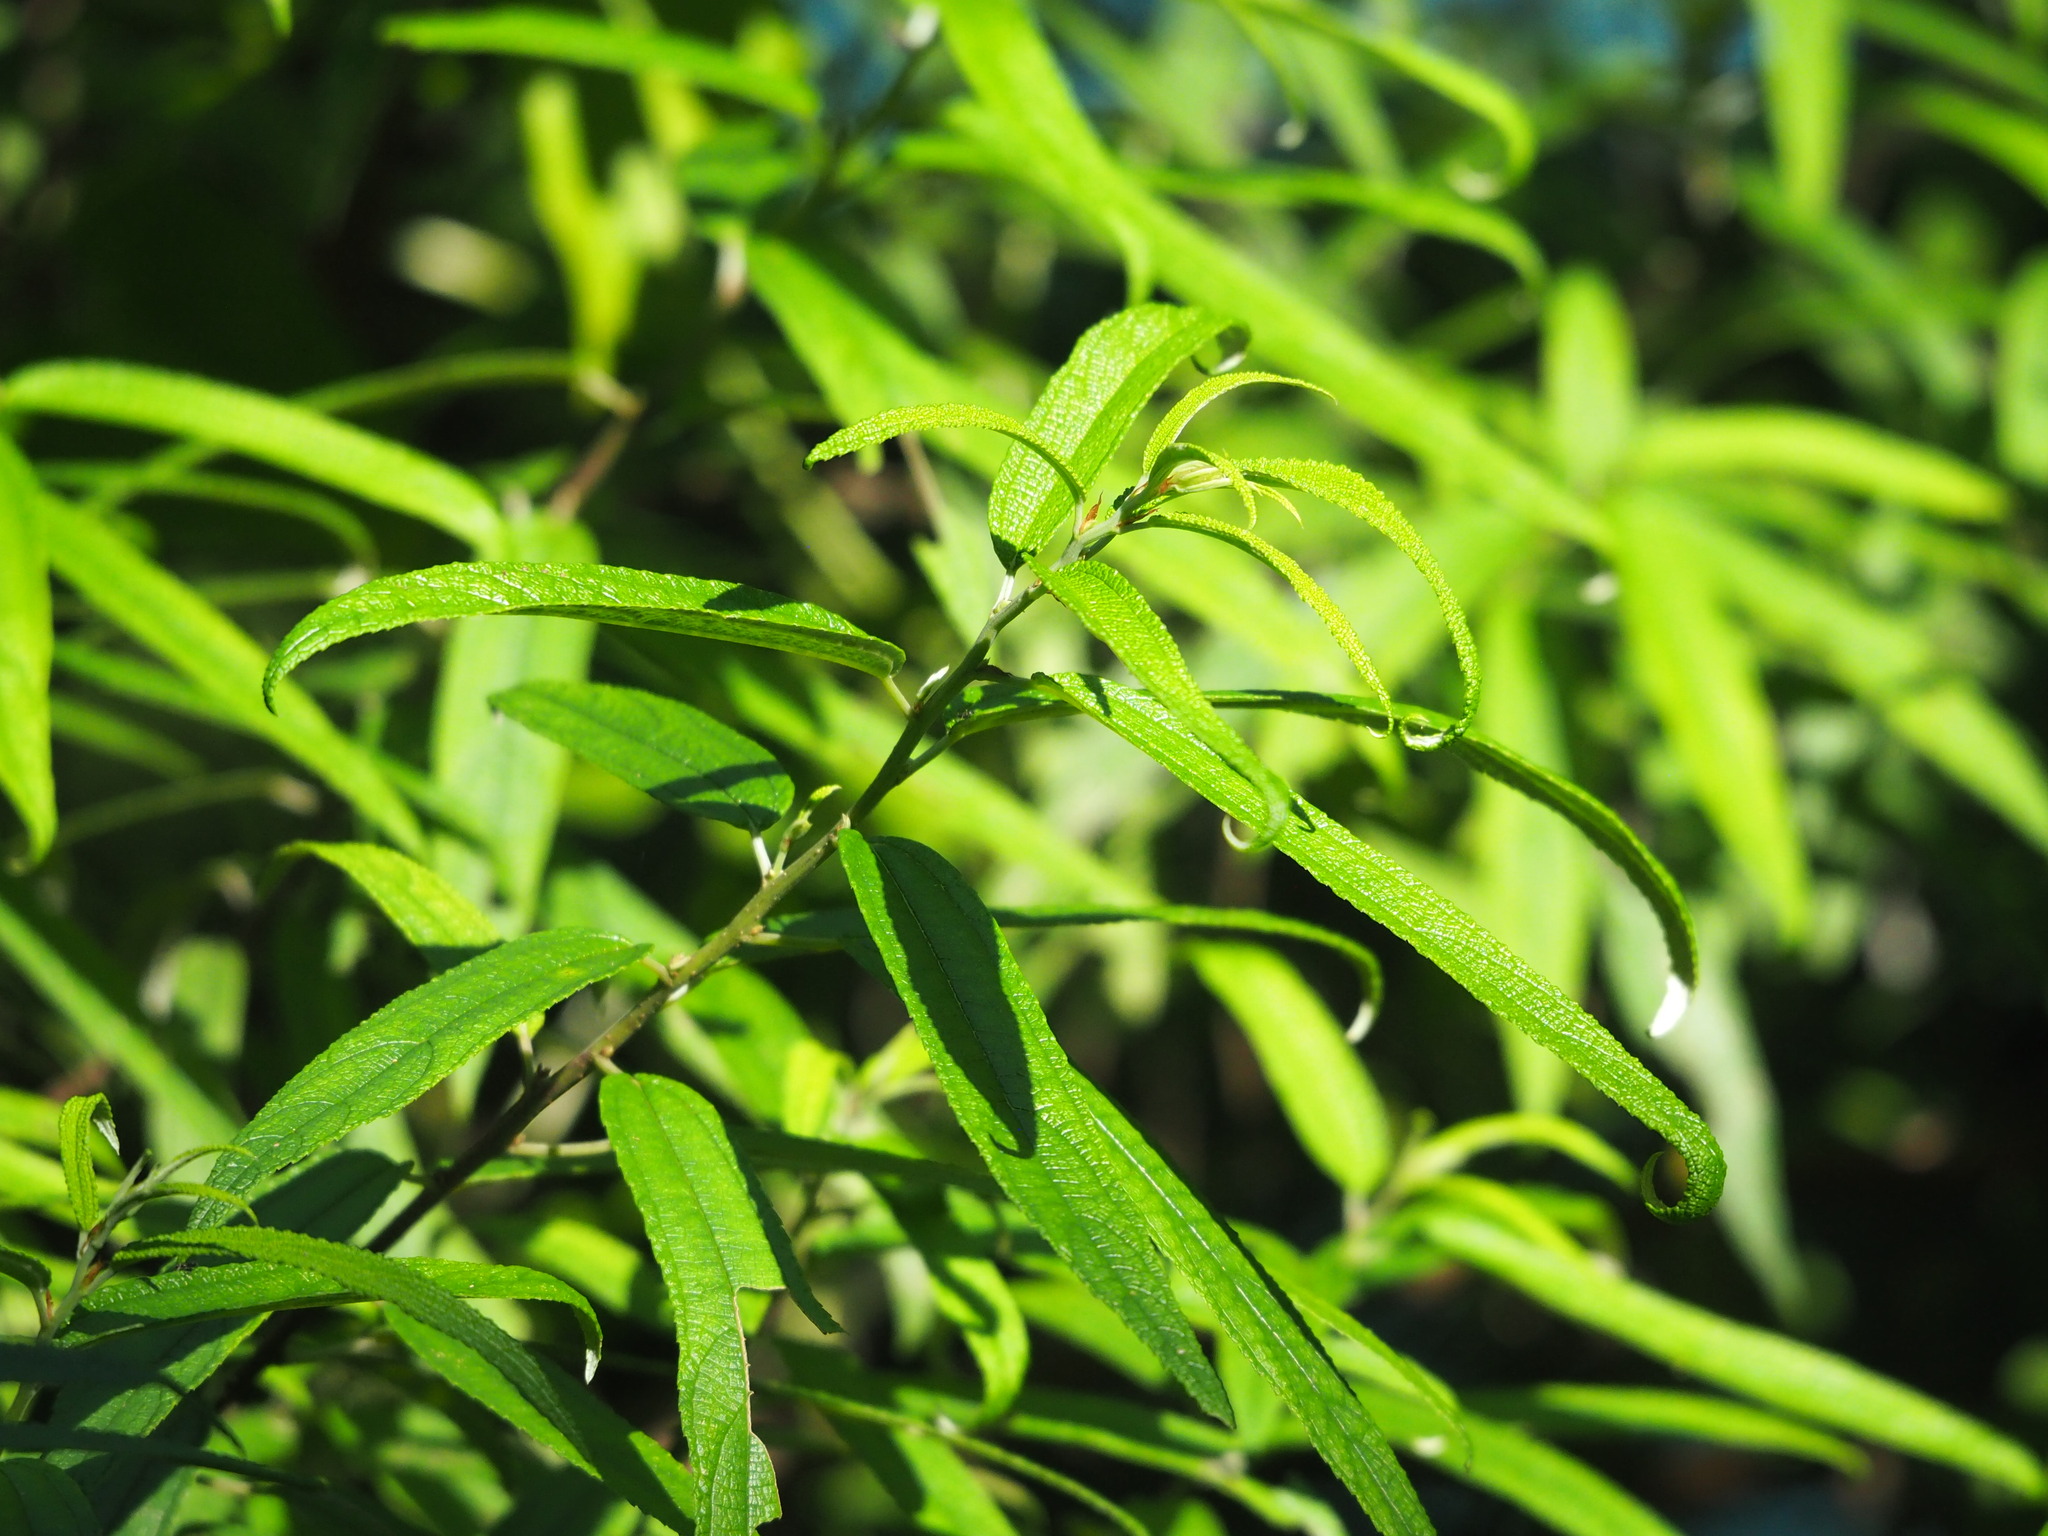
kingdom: Plantae
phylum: Tracheophyta
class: Magnoliopsida
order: Rosales
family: Urticaceae
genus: Debregeasia
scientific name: Debregeasia orientalis
